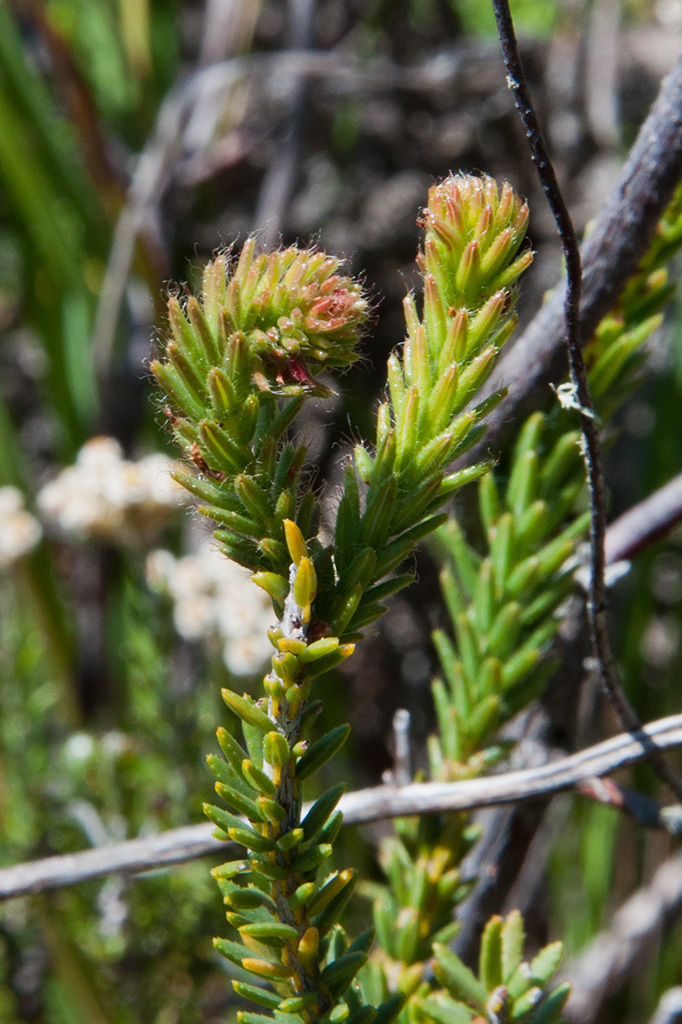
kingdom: Plantae
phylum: Tracheophyta
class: Magnoliopsida
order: Ericales
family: Ericaceae
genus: Erica
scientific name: Erica cerinthoides
